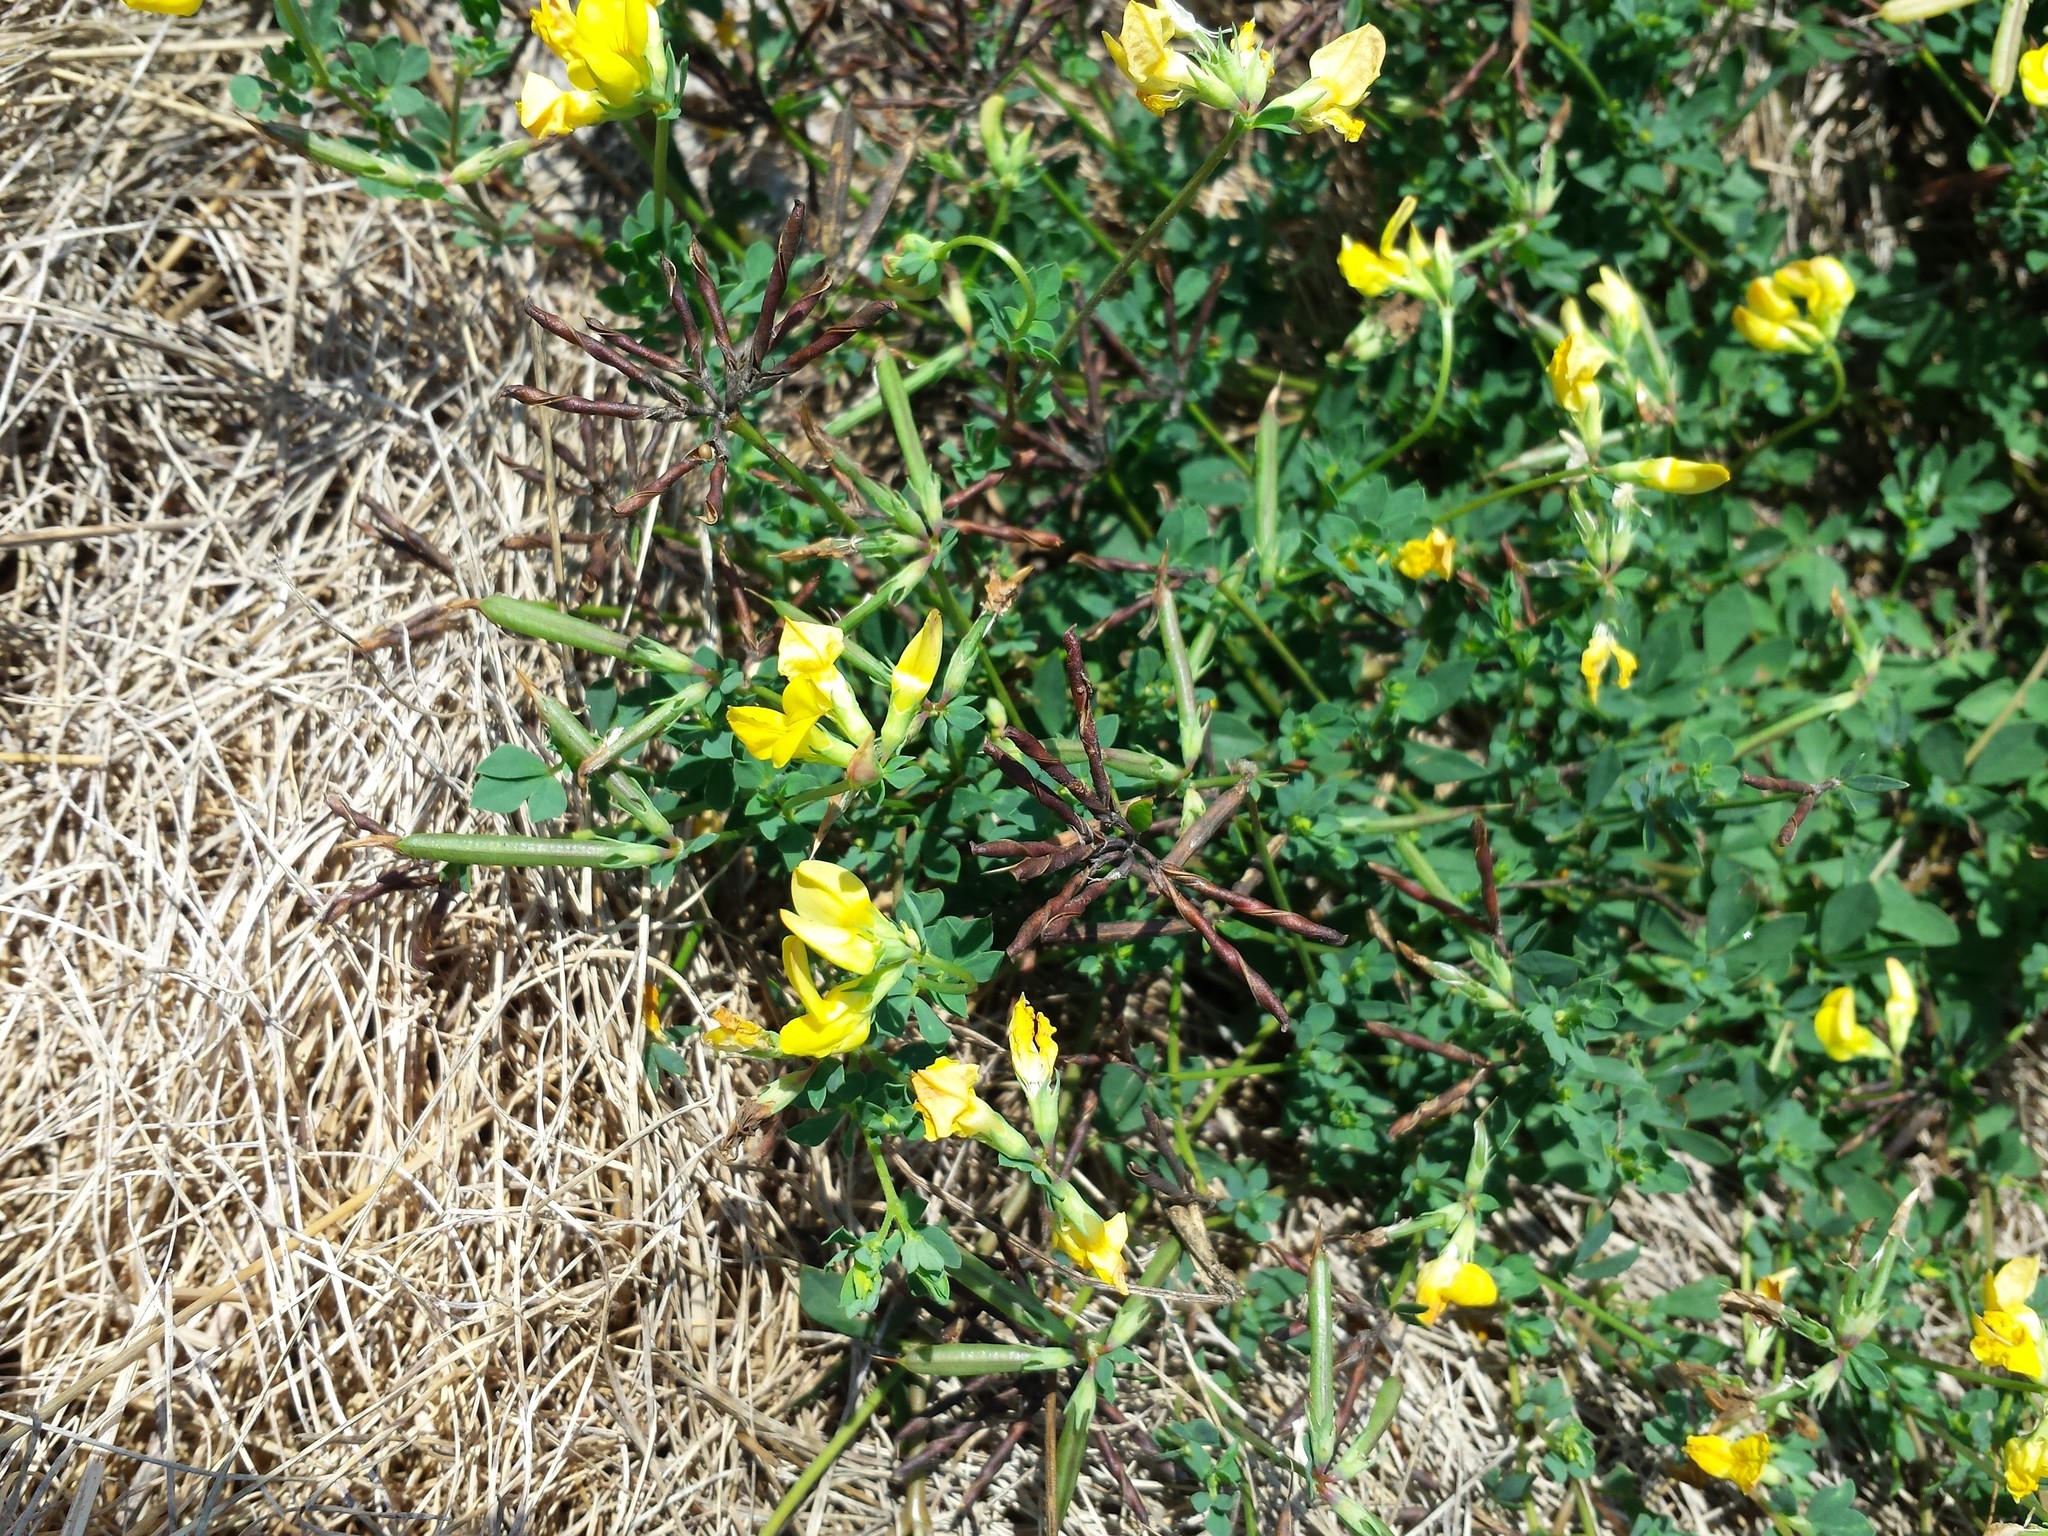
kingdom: Plantae
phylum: Tracheophyta
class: Magnoliopsida
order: Fabales
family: Fabaceae
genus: Lotus
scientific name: Lotus corniculatus
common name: Common bird's-foot-trefoil
